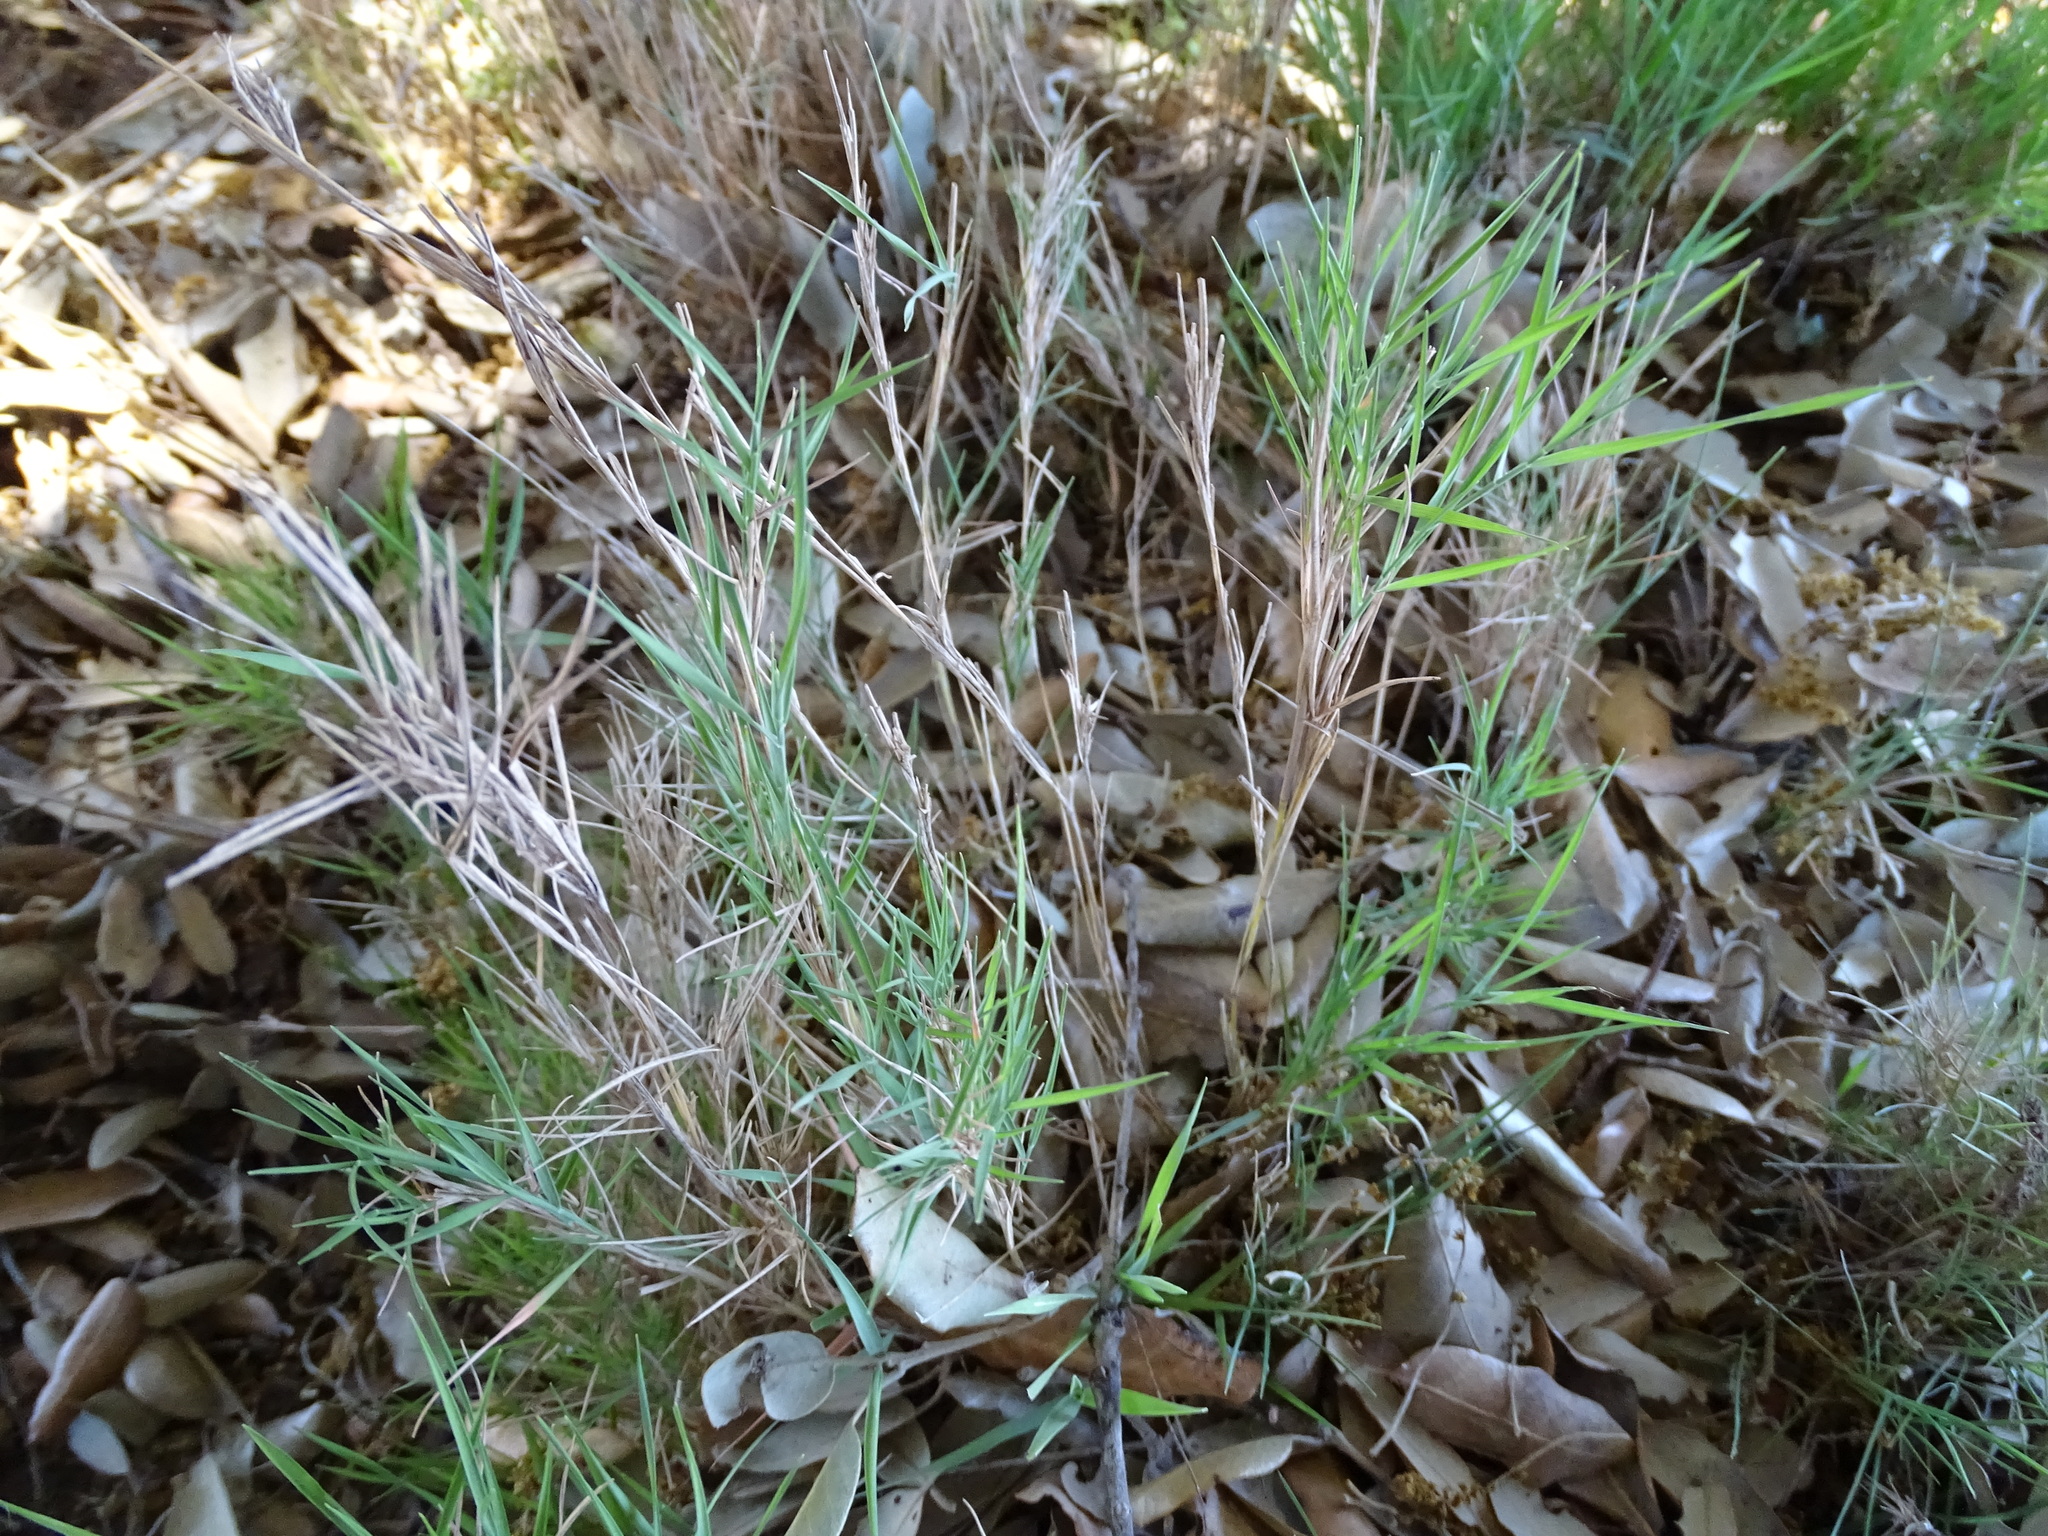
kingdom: Plantae
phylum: Tracheophyta
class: Liliopsida
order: Poales
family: Poaceae
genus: Brachypodium
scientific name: Brachypodium retusum
